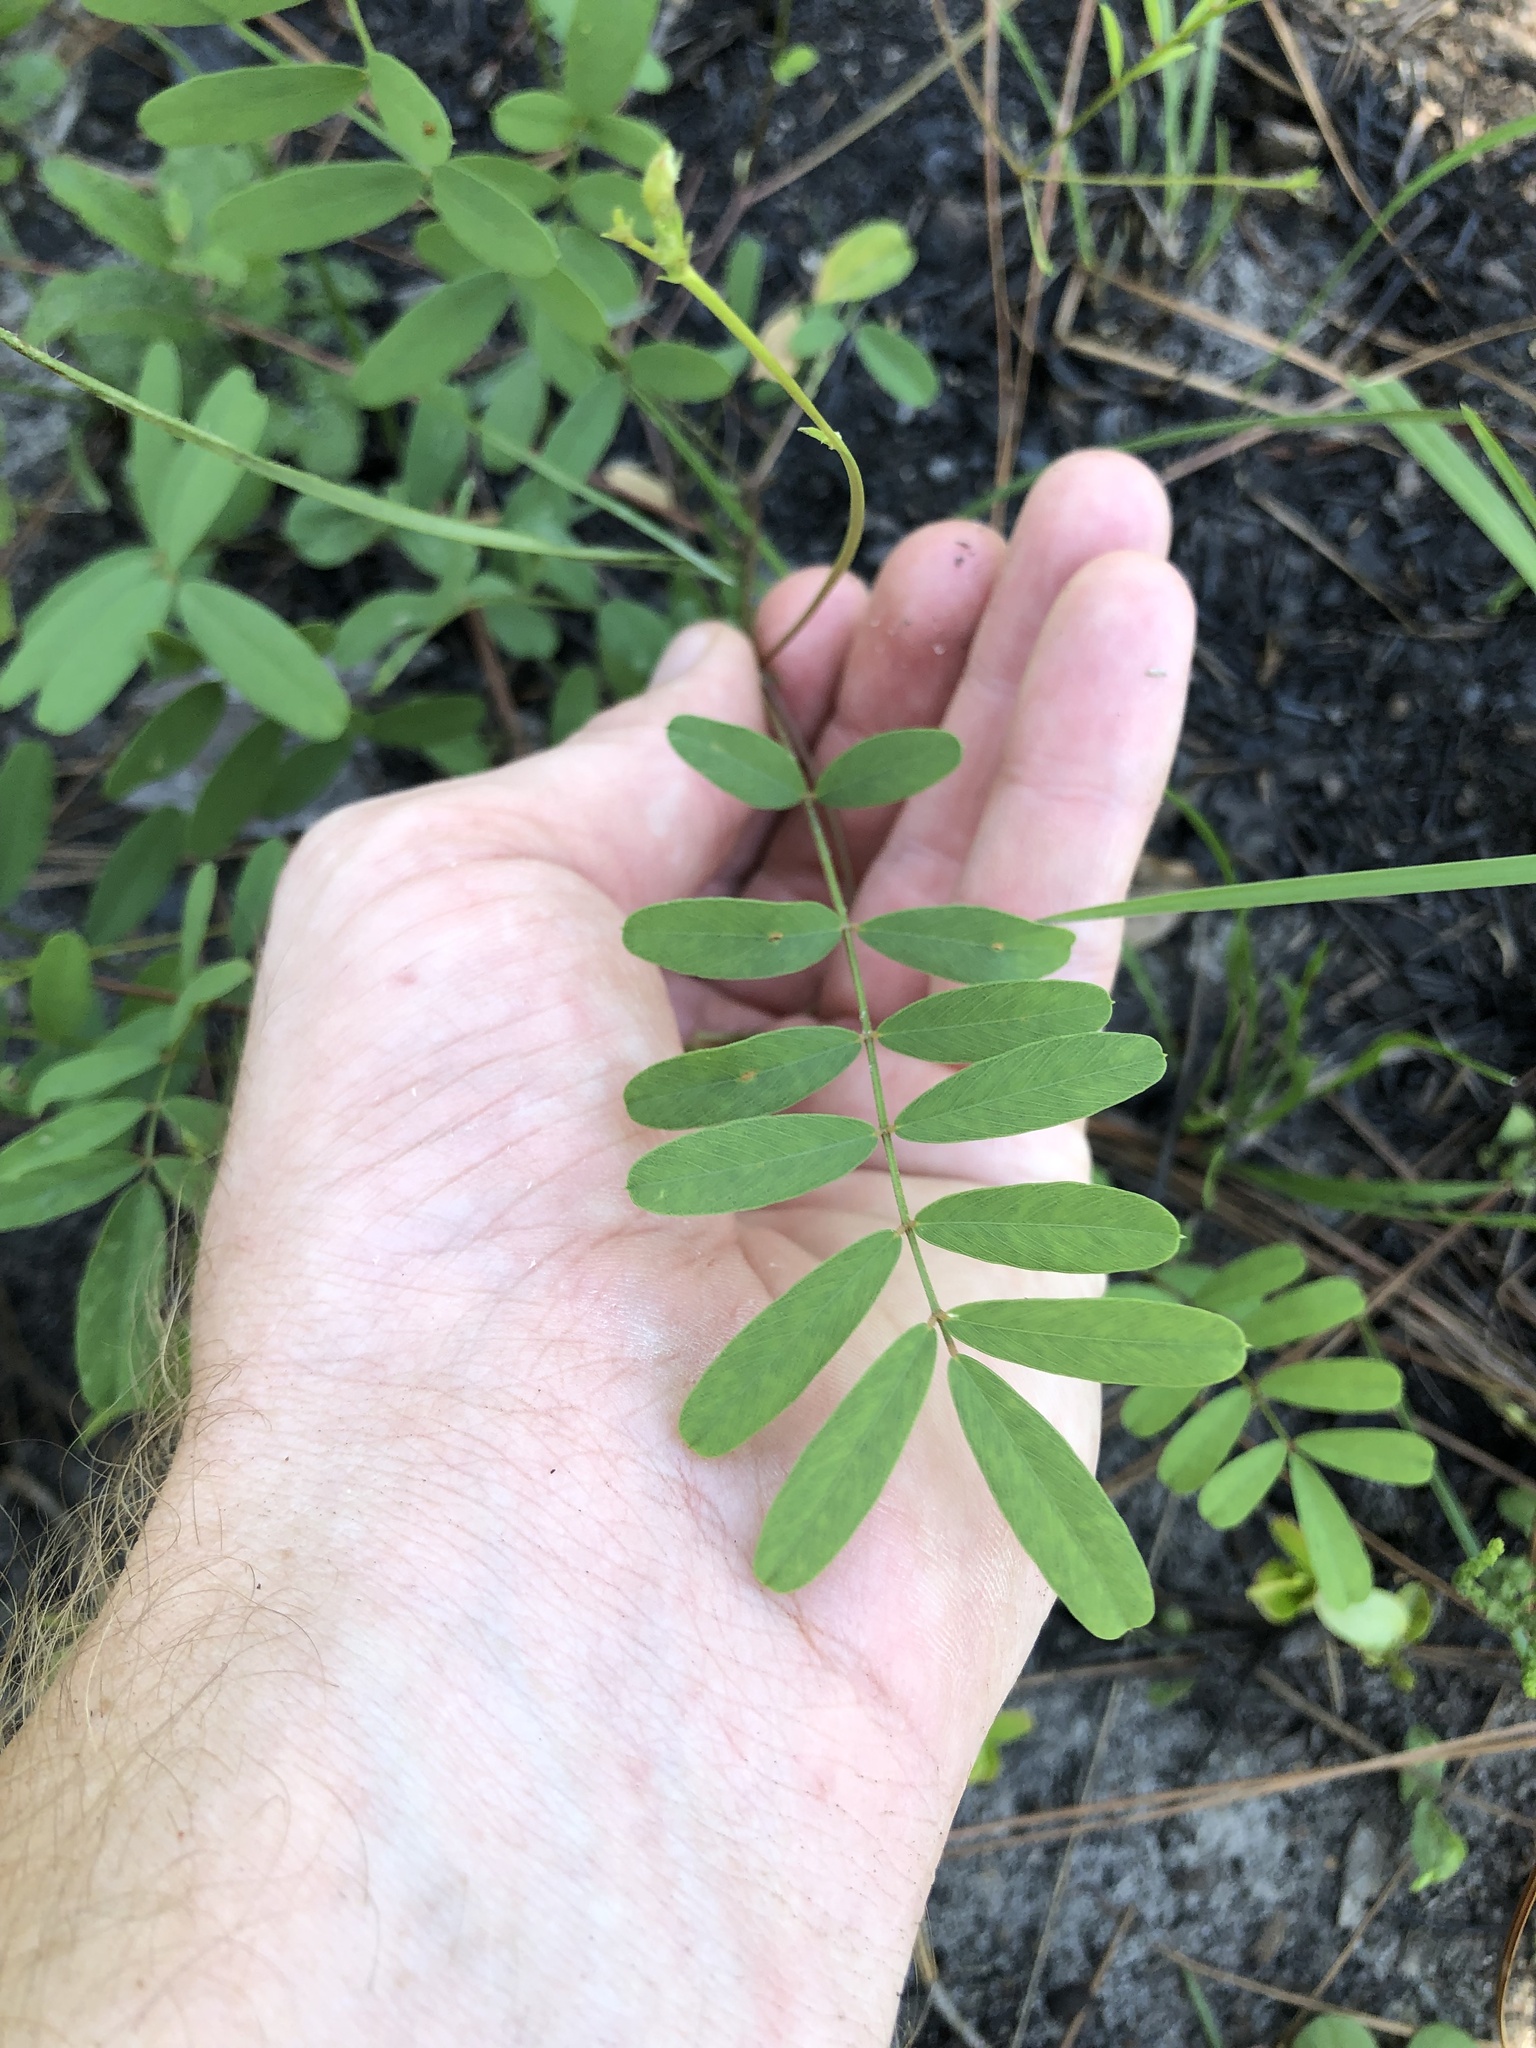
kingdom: Plantae
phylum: Tracheophyta
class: Magnoliopsida
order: Fabales
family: Fabaceae
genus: Tephrosia
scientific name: Tephrosia florida
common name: Florida hoary-pea
